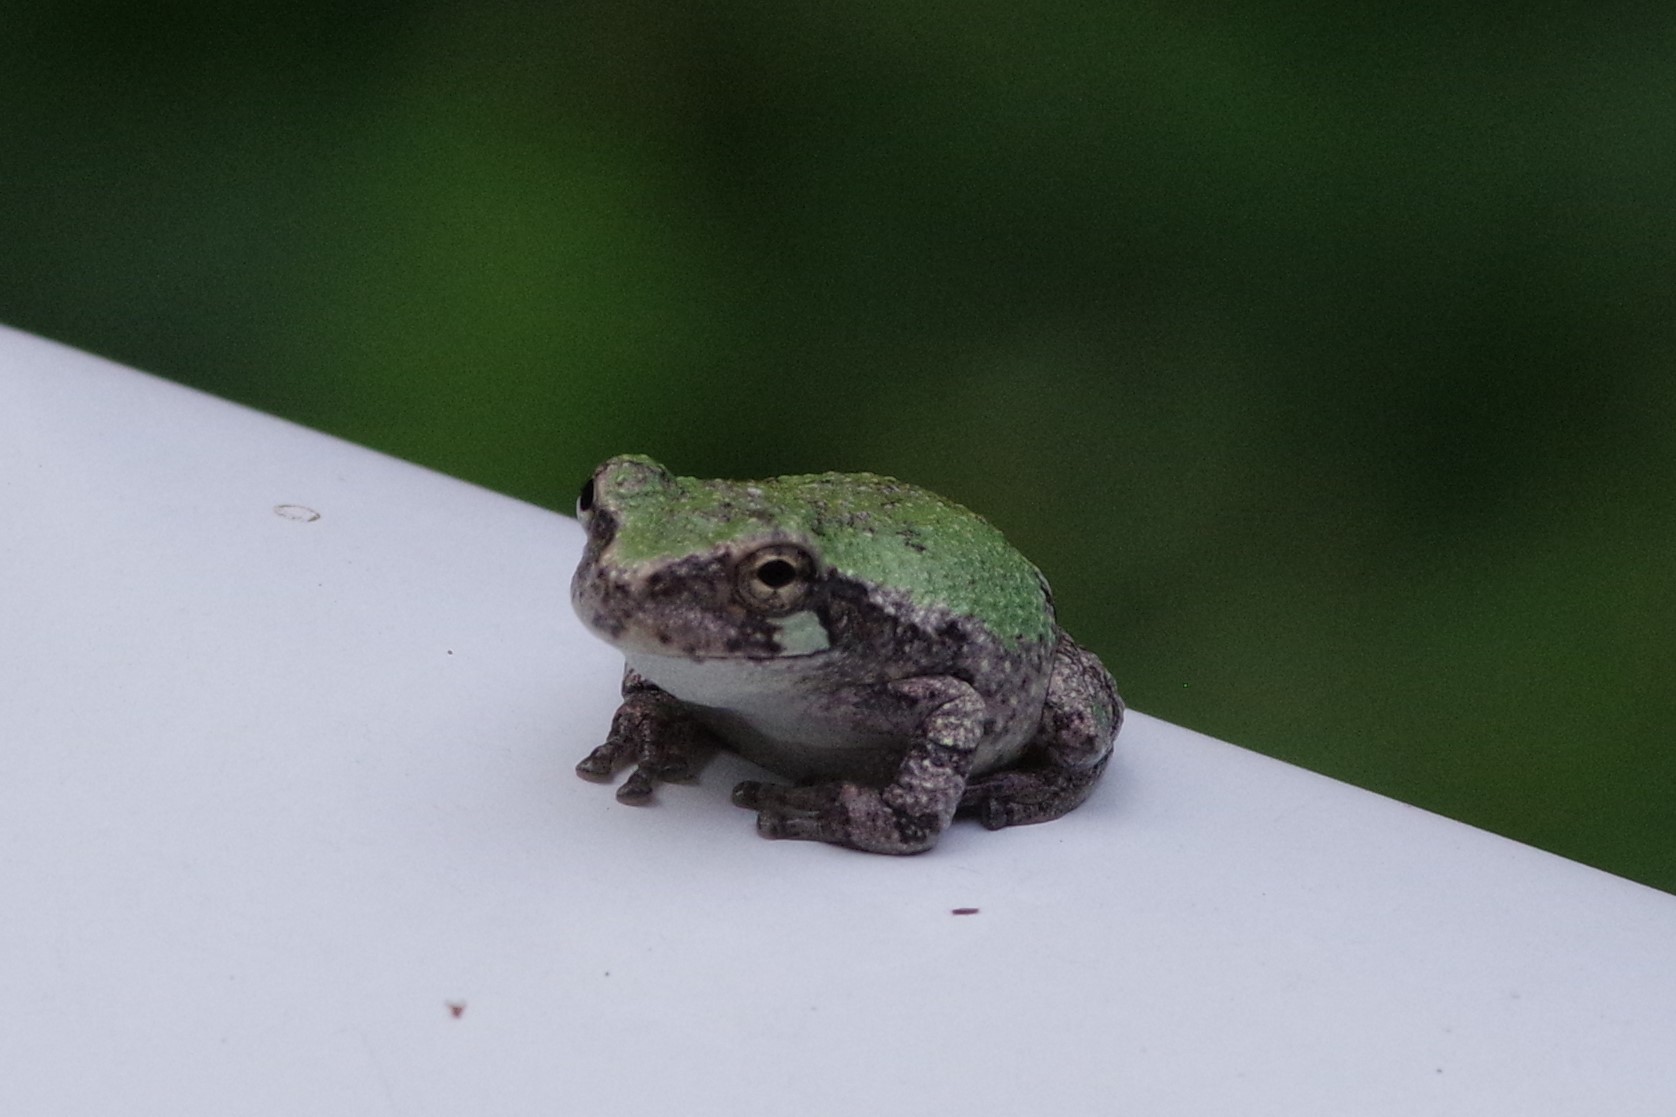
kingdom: Animalia
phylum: Chordata
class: Amphibia
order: Anura
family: Hylidae
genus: Dryophytes
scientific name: Dryophytes chrysoscelis
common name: Cope's gray treefrog
